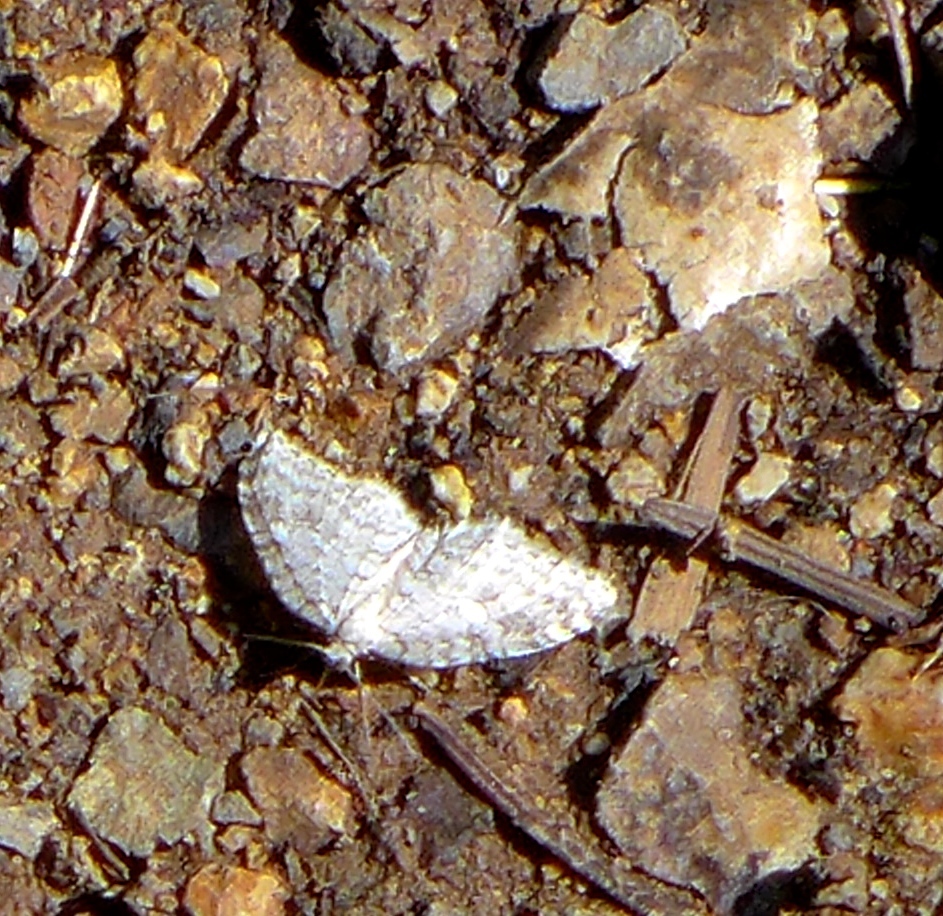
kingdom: Animalia
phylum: Arthropoda
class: Insecta
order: Lepidoptera
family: Geometridae
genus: Venusia
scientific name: Venusia
